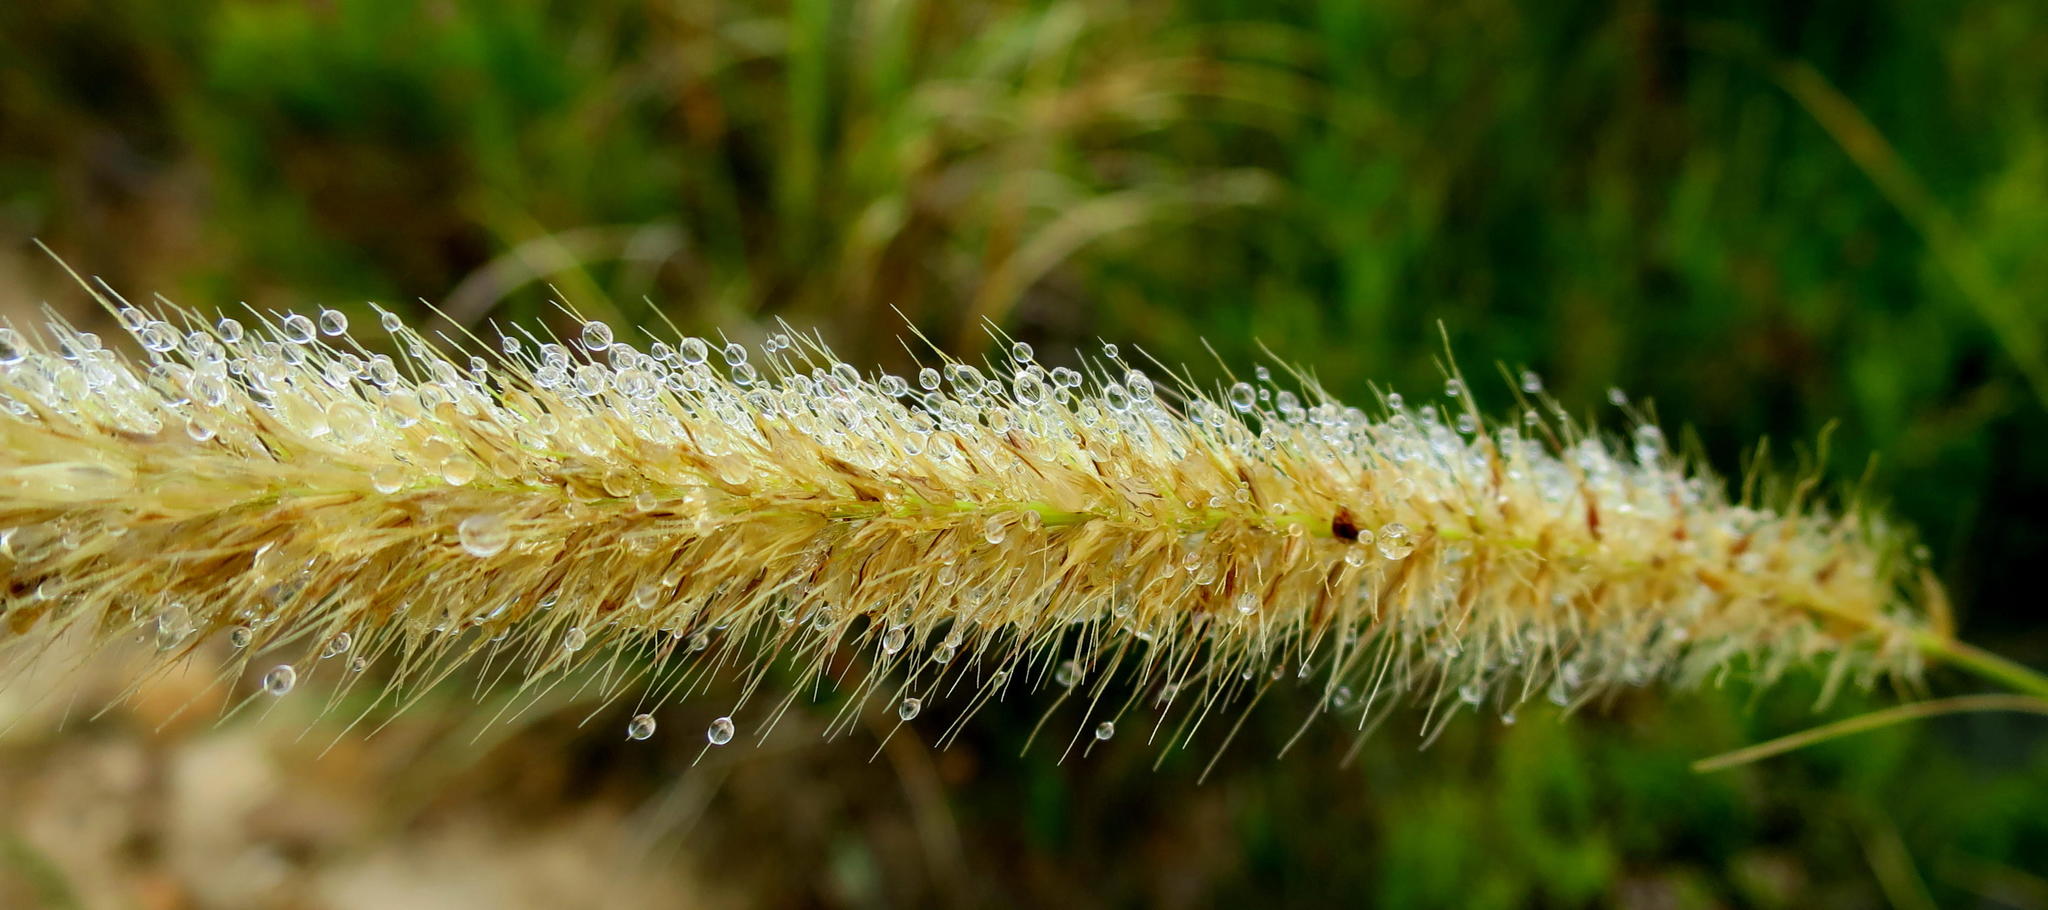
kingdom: Plantae
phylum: Tracheophyta
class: Liliopsida
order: Poales
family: Poaceae
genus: Cenchrus
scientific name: Cenchrus caudatus
